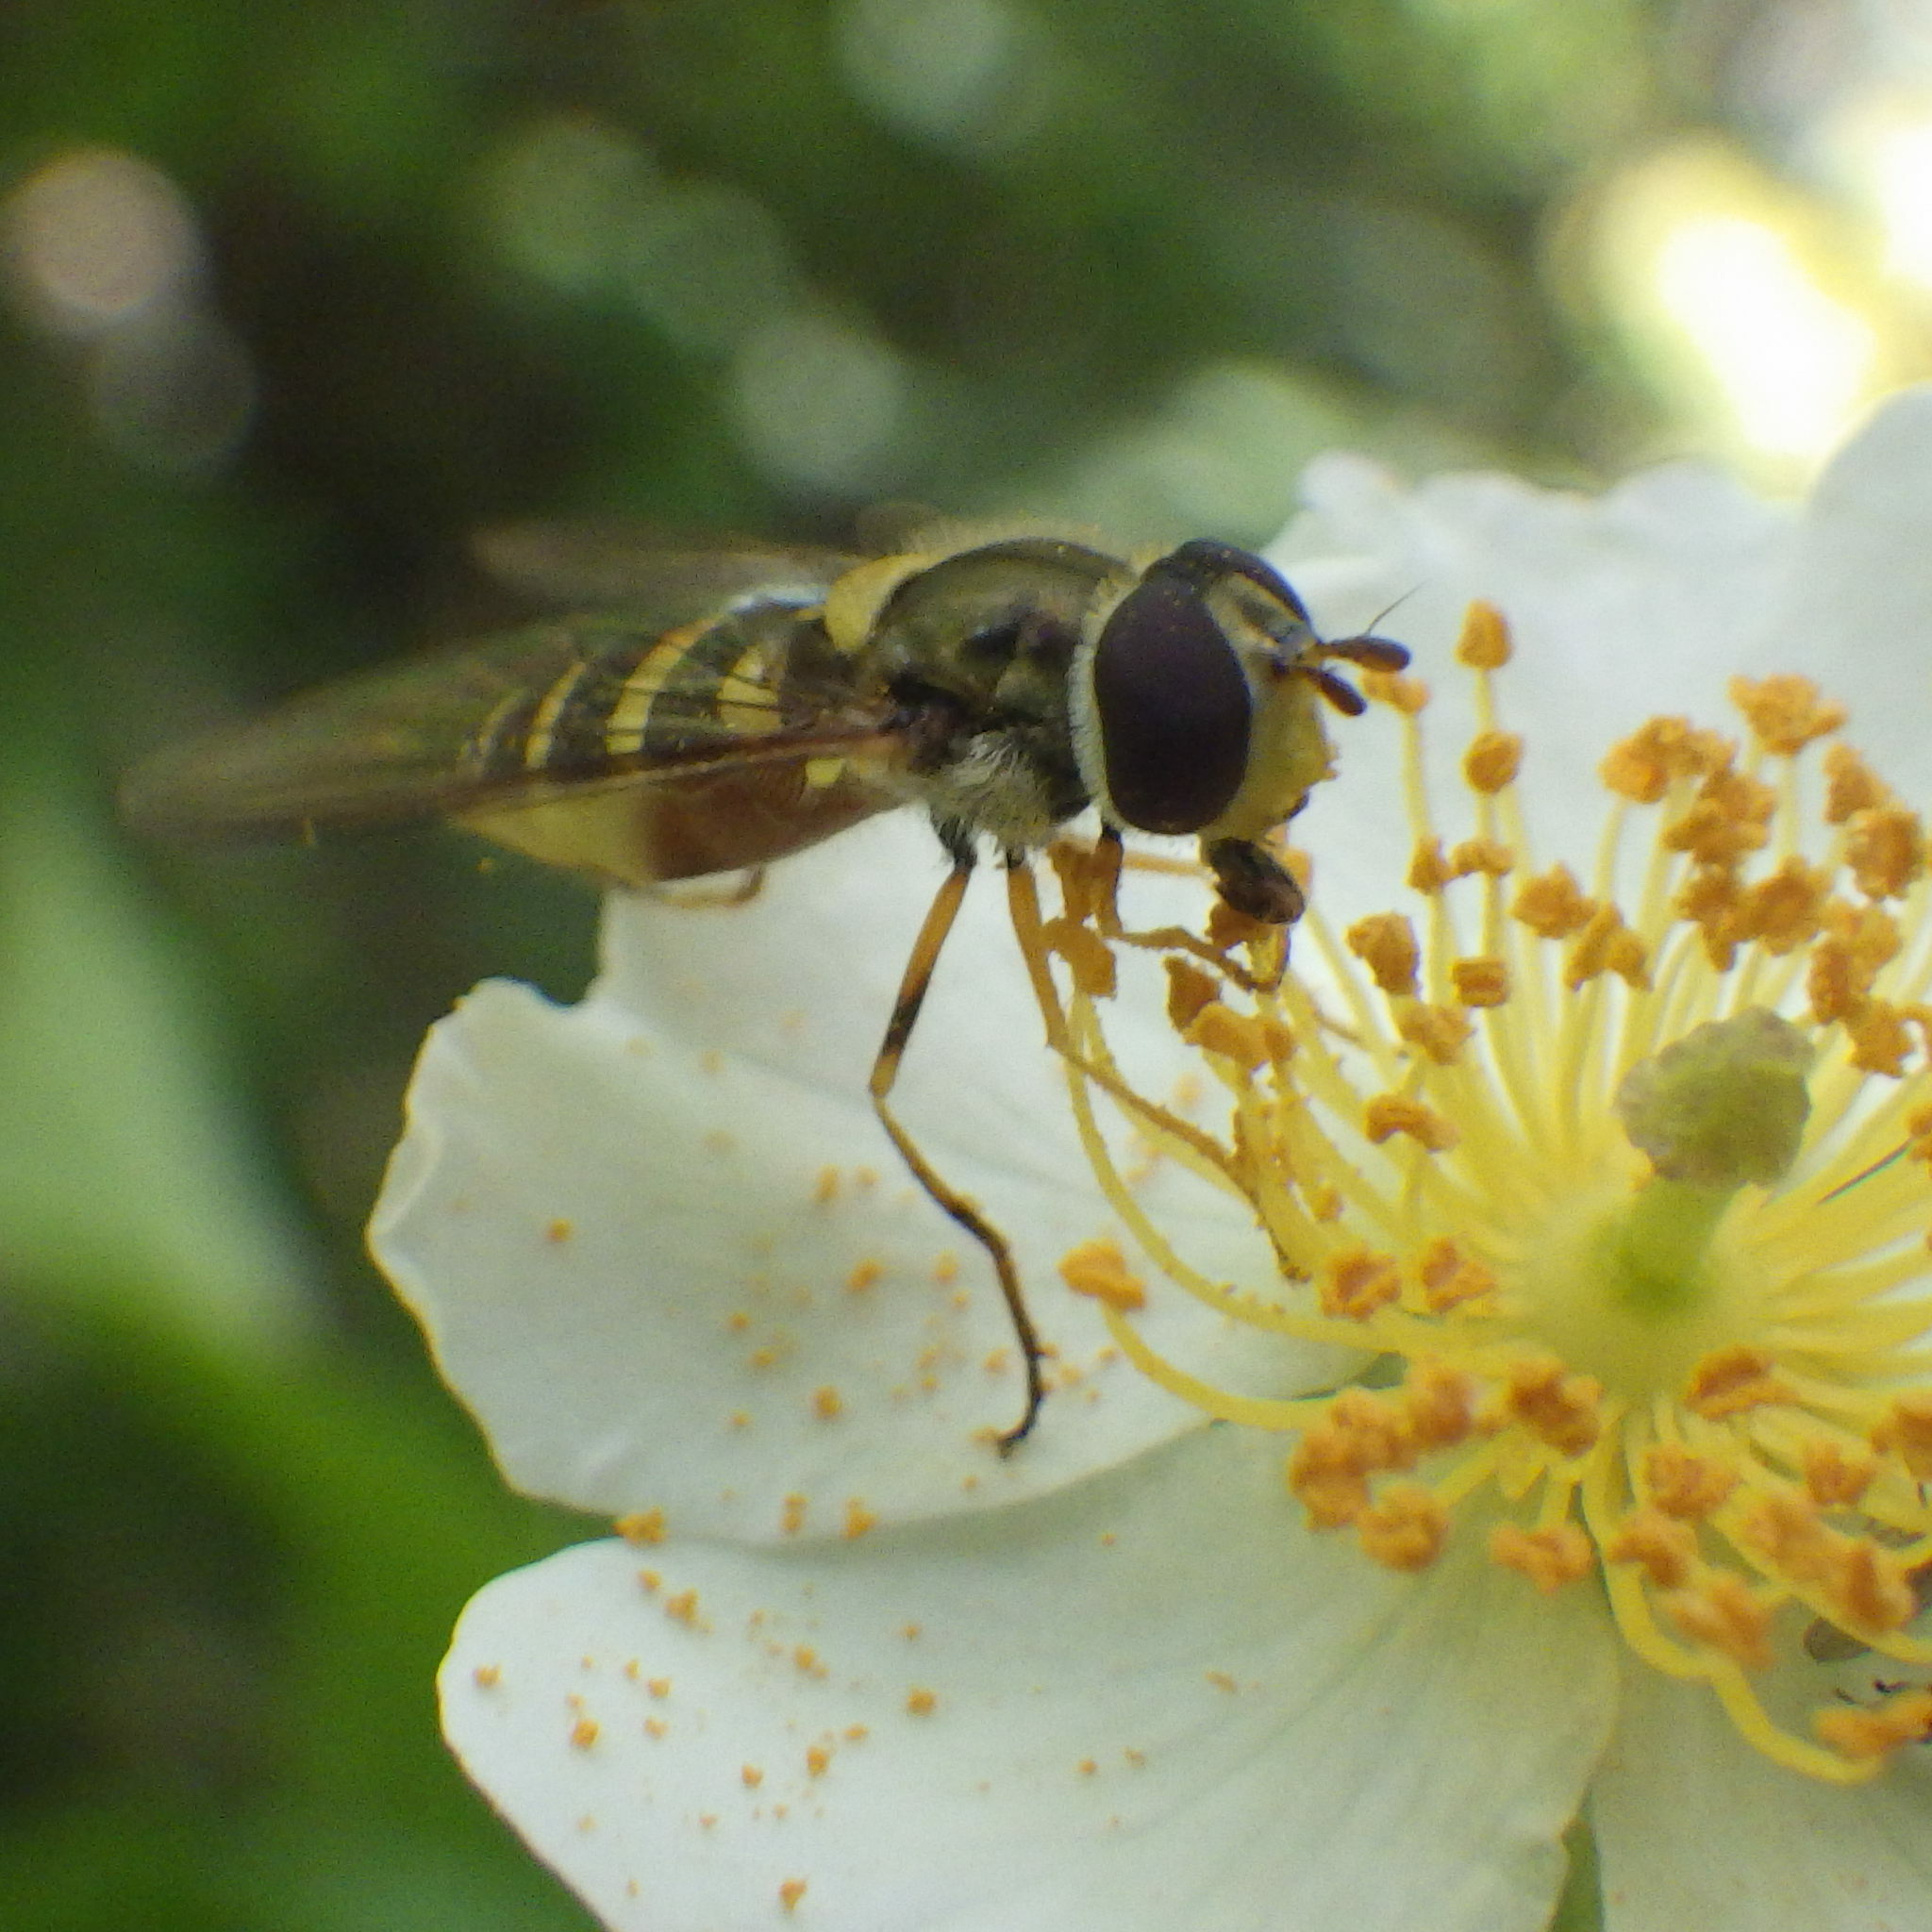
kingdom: Animalia
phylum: Arthropoda
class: Insecta
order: Diptera
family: Syrphidae
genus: Syrphus
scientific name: Syrphus rectus
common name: Yellow-legged flower fly
